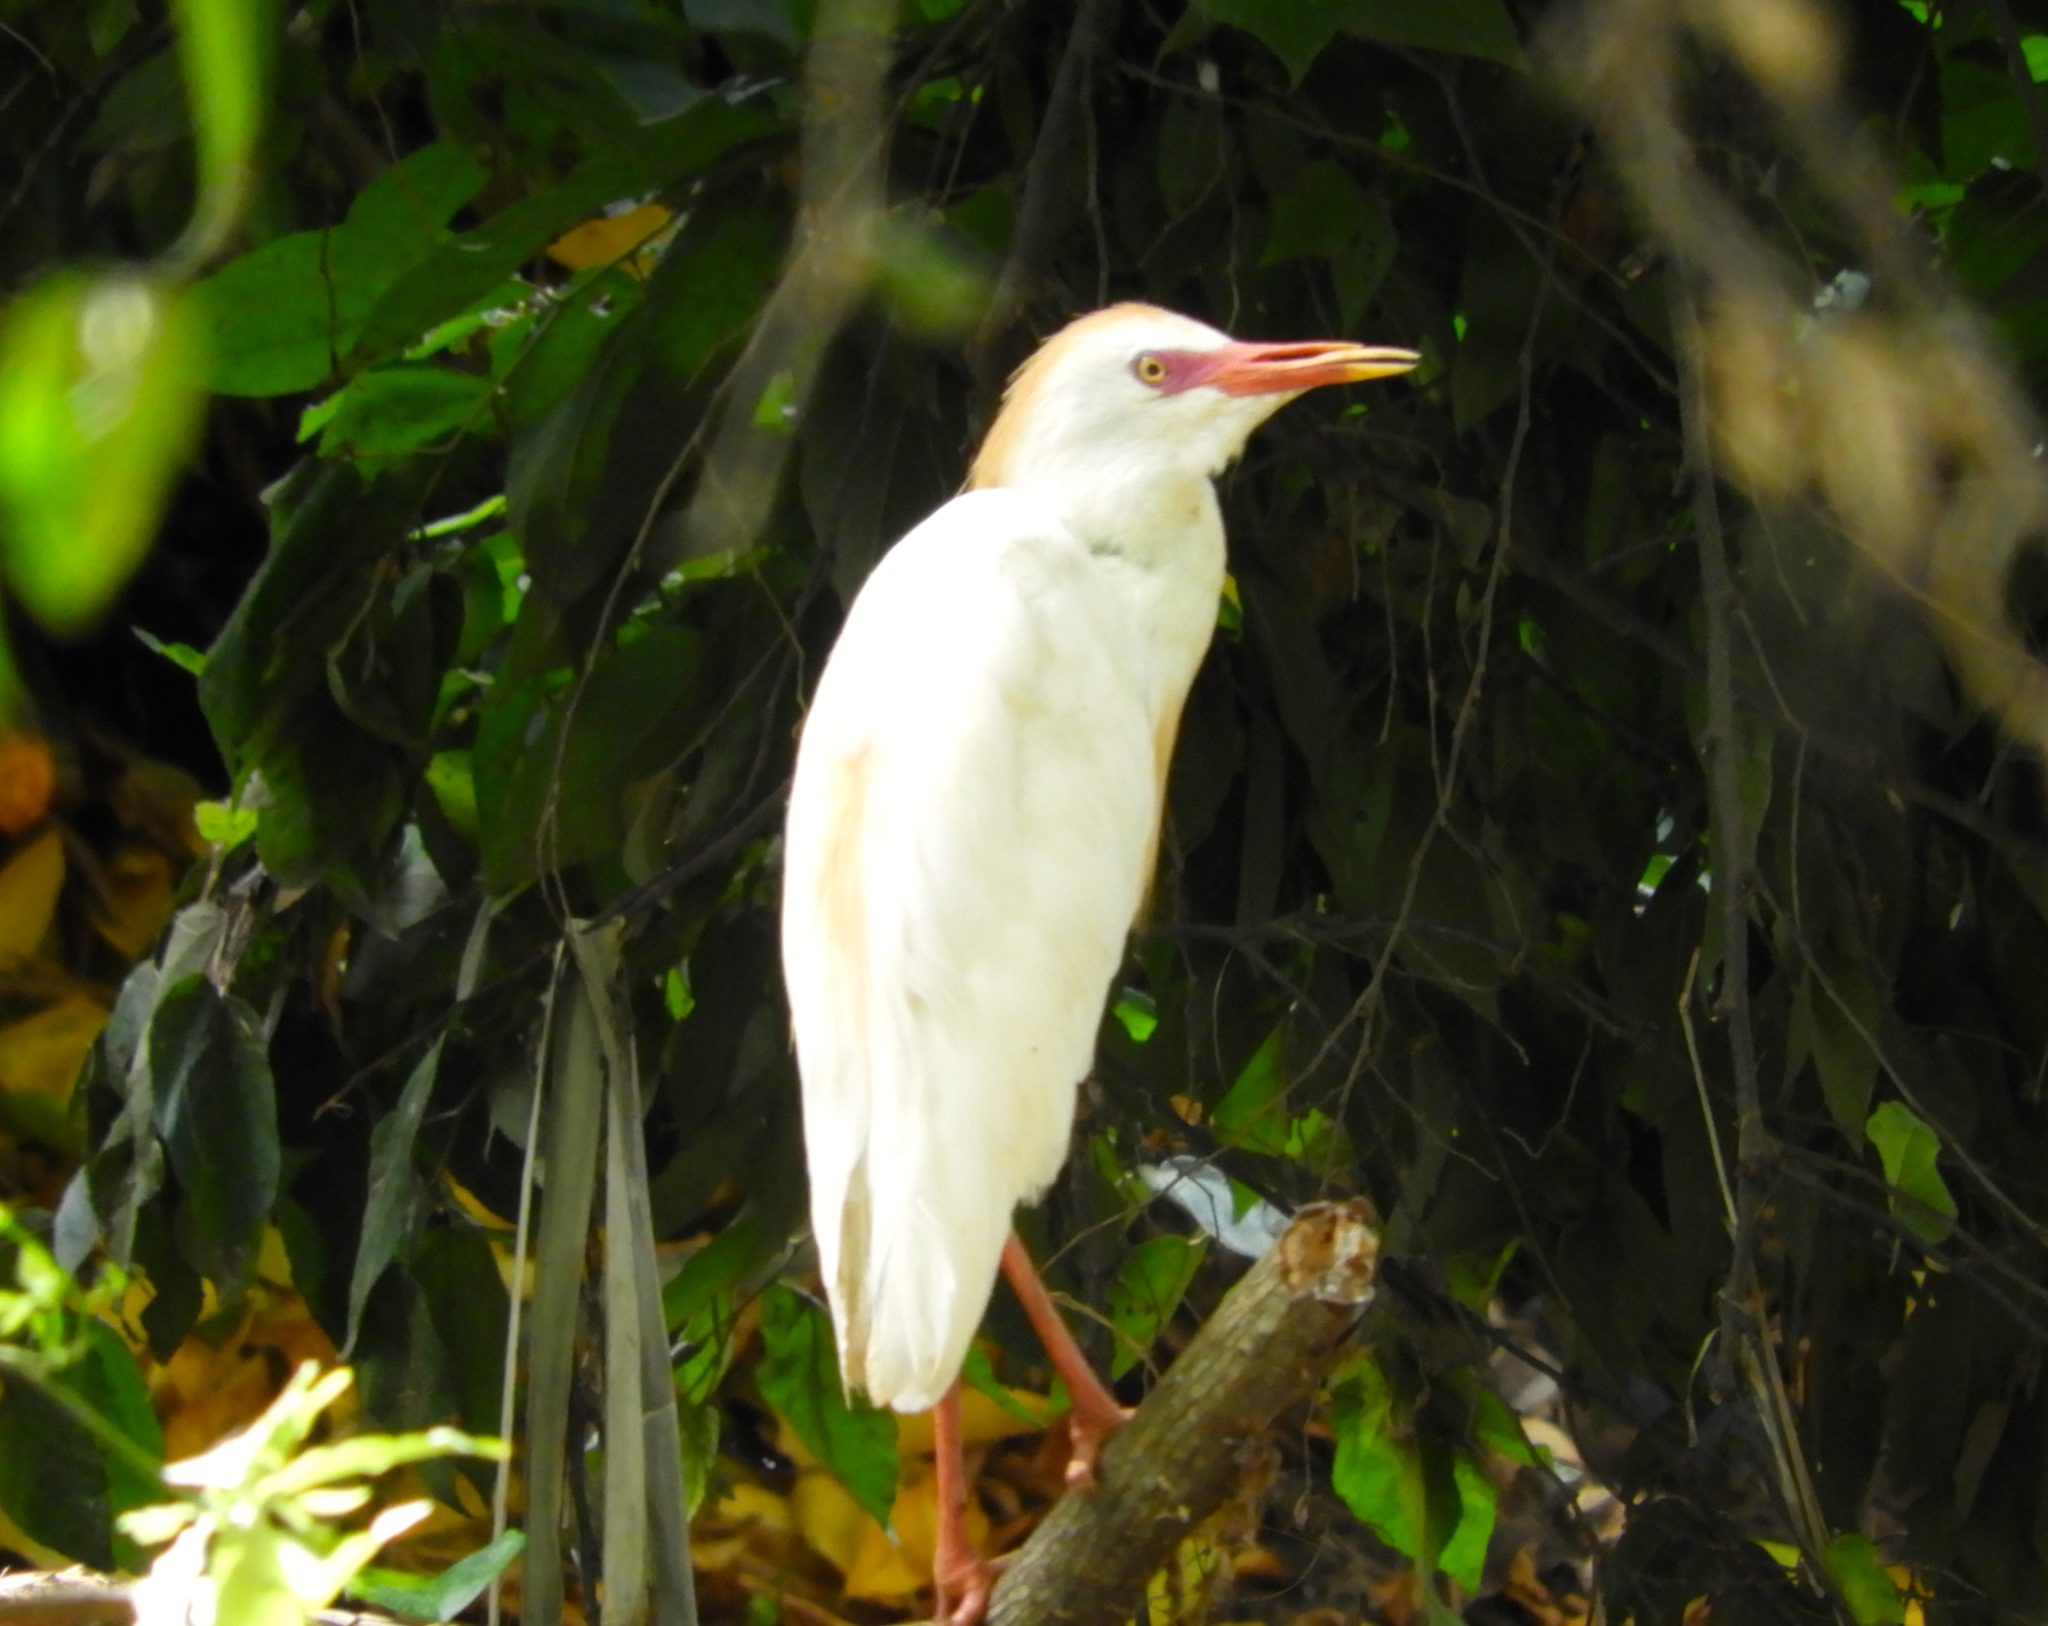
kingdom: Animalia
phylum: Chordata
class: Aves
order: Pelecaniformes
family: Ardeidae
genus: Bubulcus
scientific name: Bubulcus ibis
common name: Cattle egret
